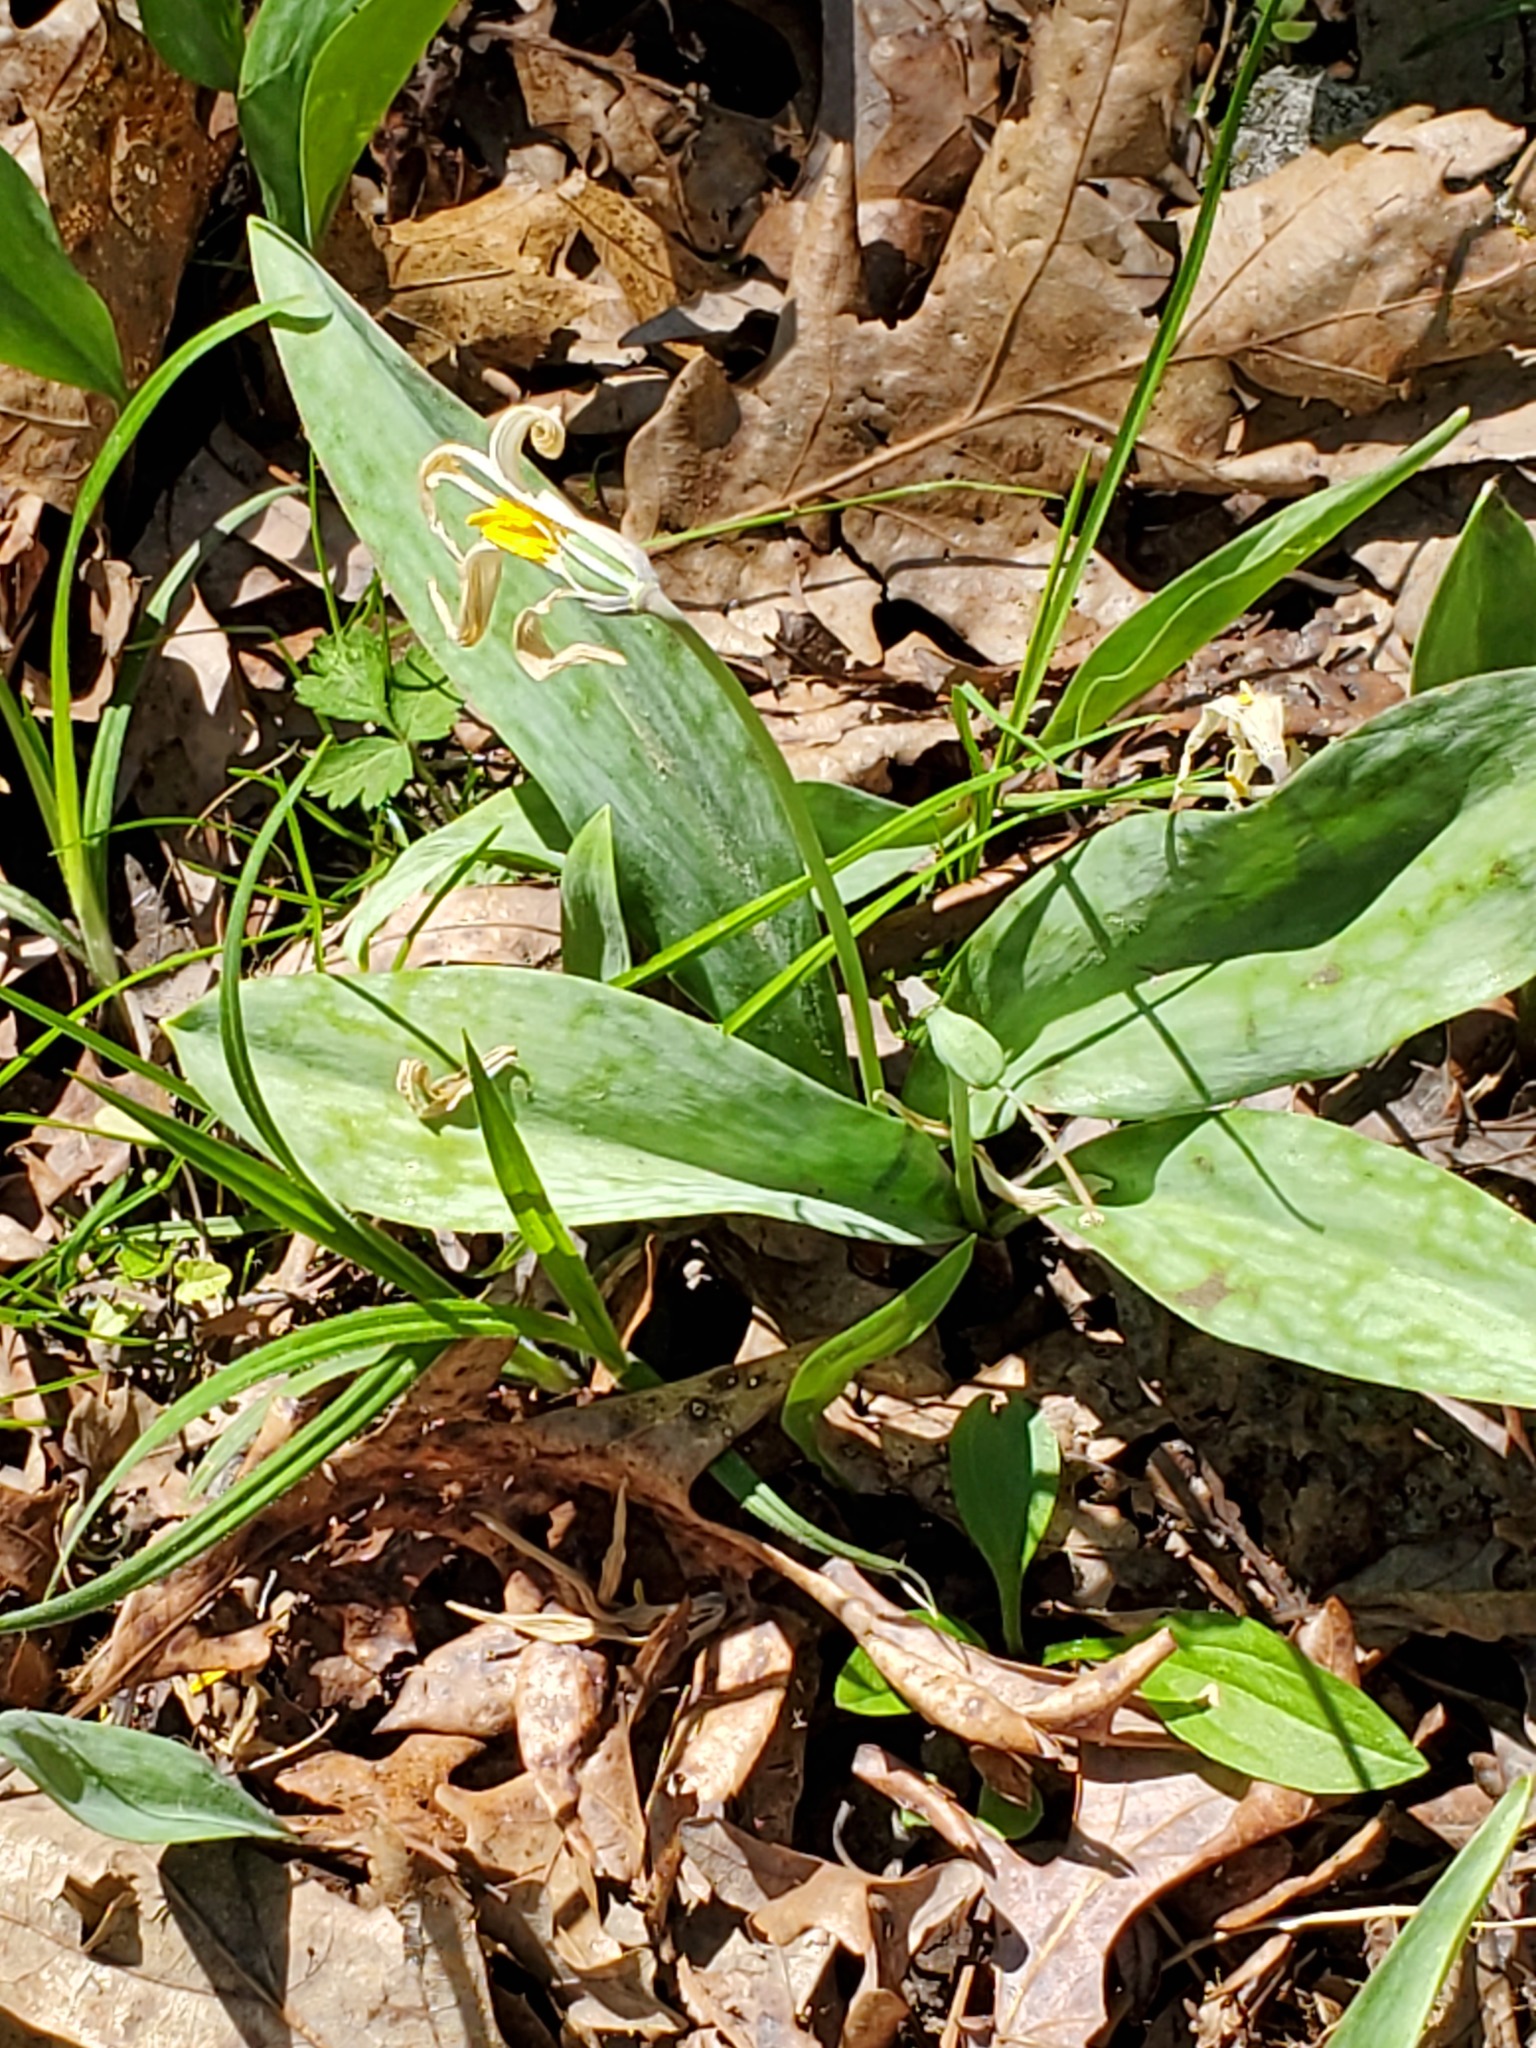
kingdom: Plantae
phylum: Tracheophyta
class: Liliopsida
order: Liliales
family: Liliaceae
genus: Erythronium
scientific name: Erythronium albidum
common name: White trout-lily
